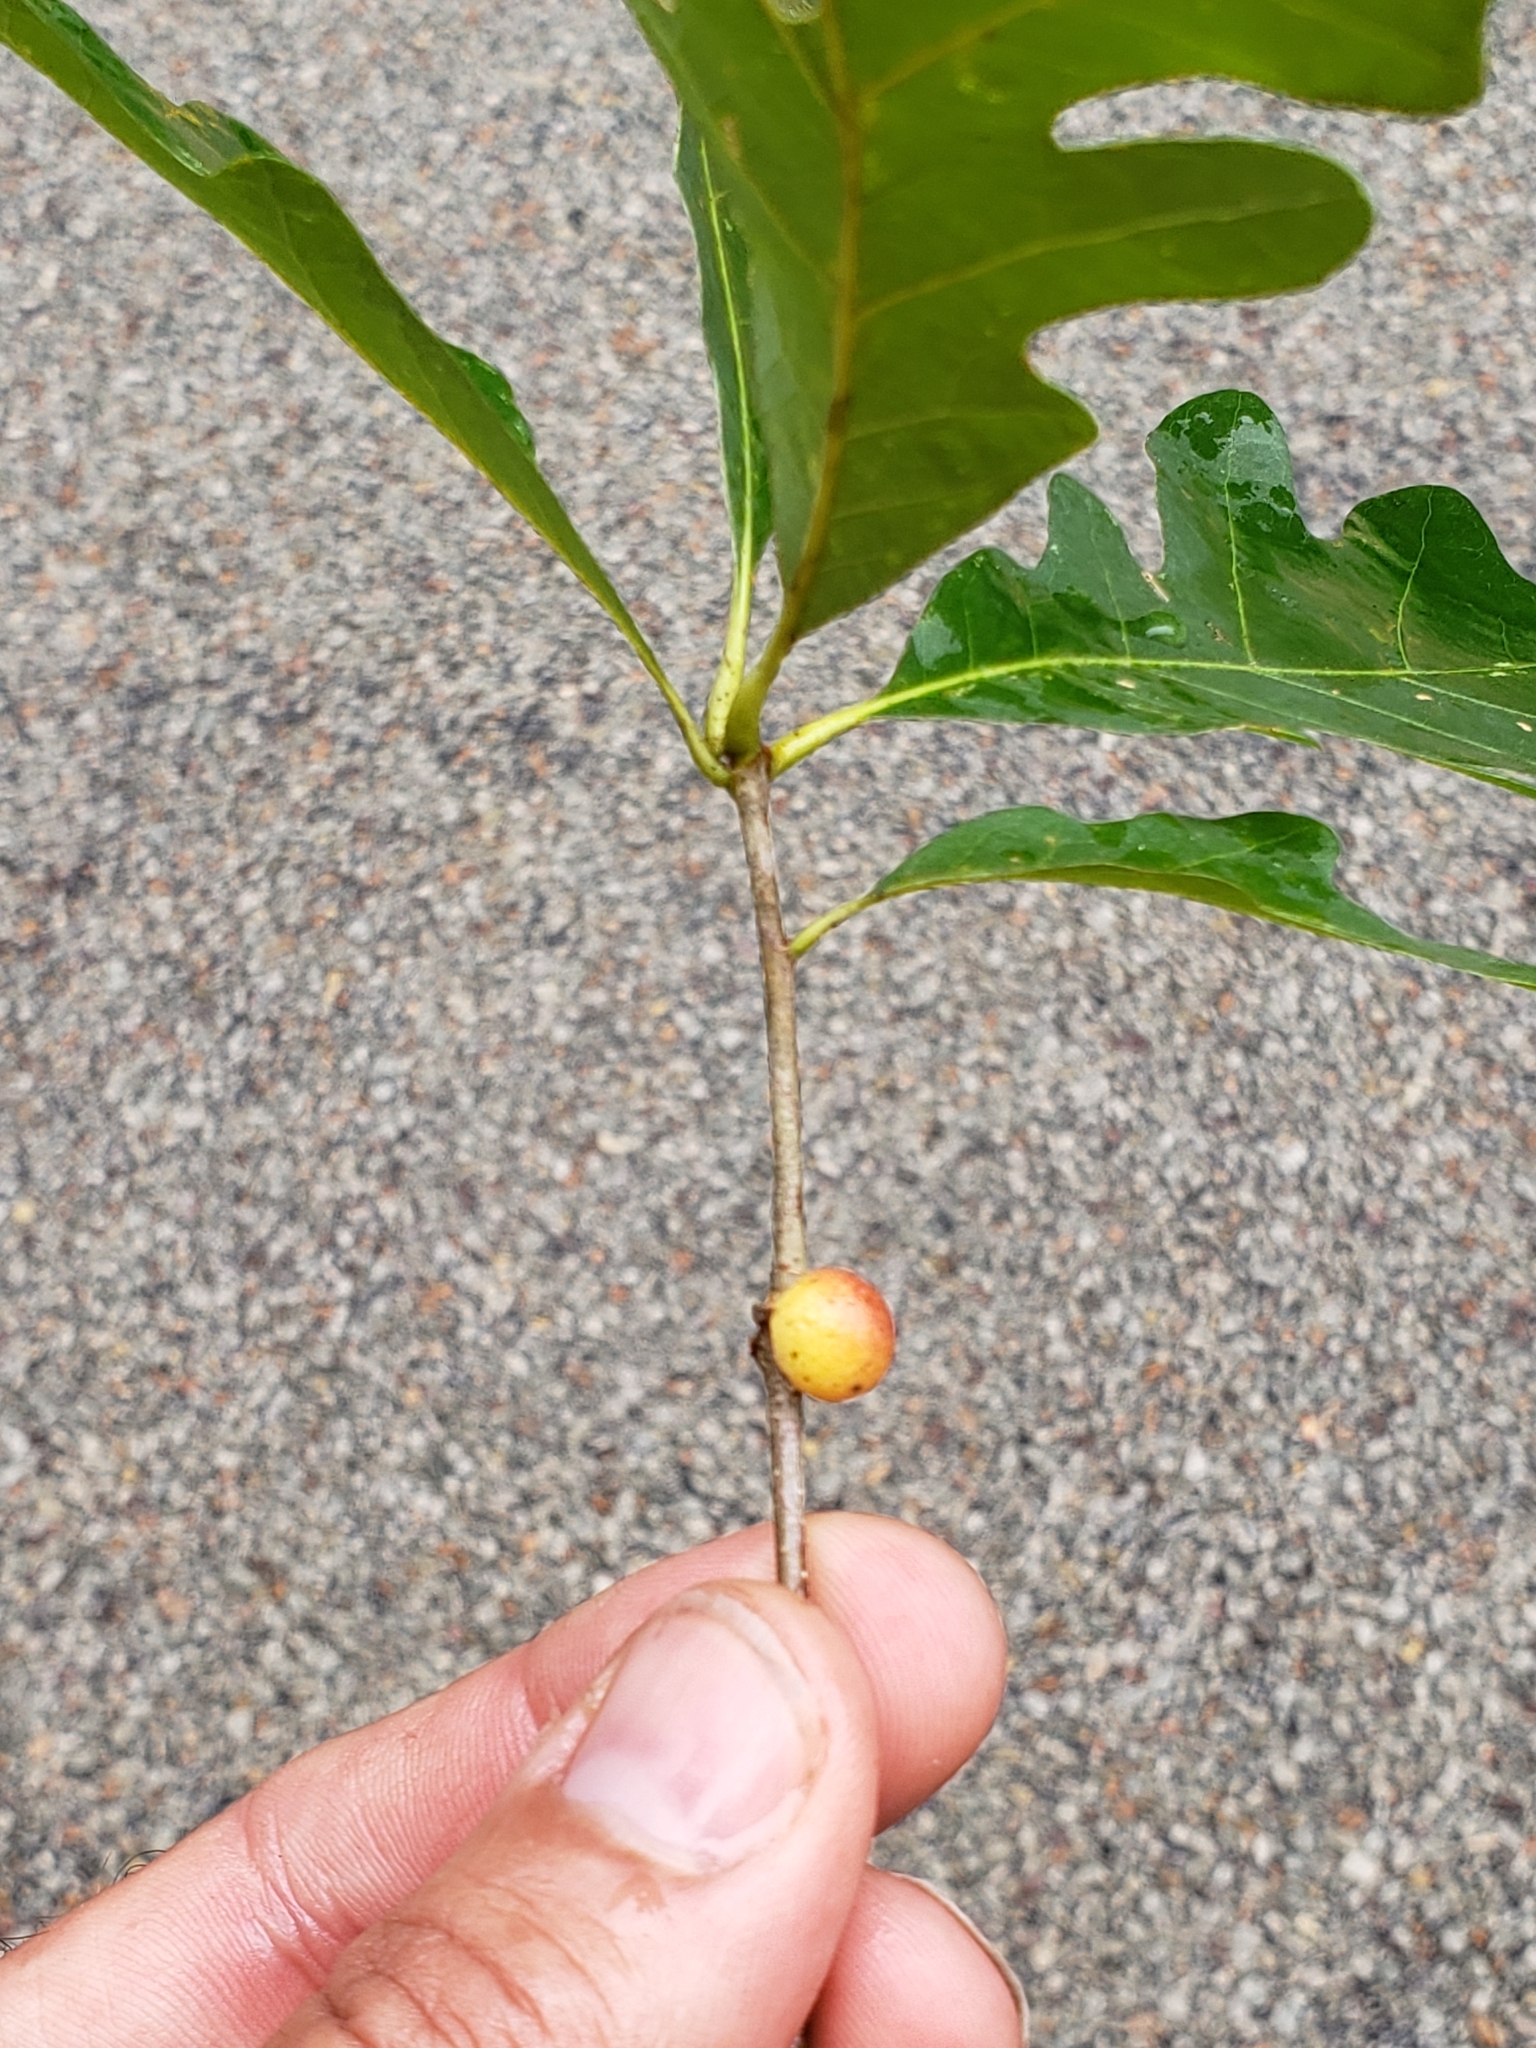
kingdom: Animalia
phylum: Arthropoda
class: Insecta
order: Hymenoptera
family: Cynipidae
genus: Disholcaspis
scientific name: Disholcaspis quercusglobulus
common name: Round bullet gall wasp
